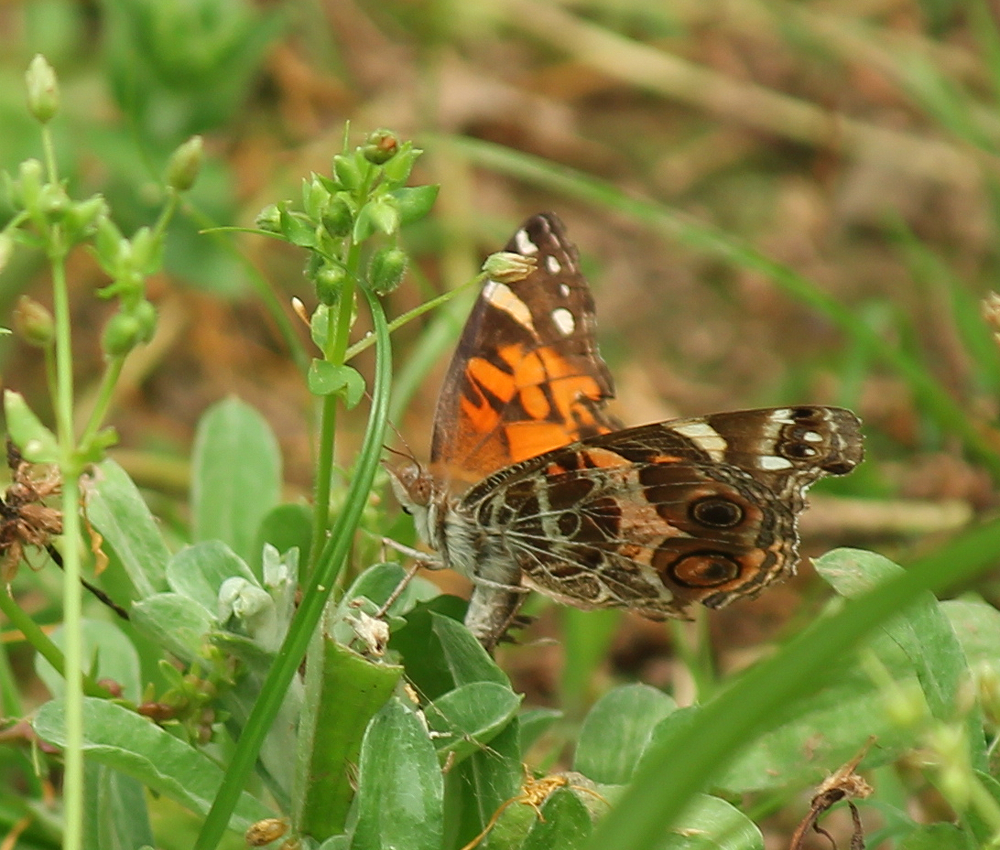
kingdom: Animalia
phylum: Arthropoda
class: Insecta
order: Lepidoptera
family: Nymphalidae
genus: Vanessa
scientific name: Vanessa virginiensis
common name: American lady
